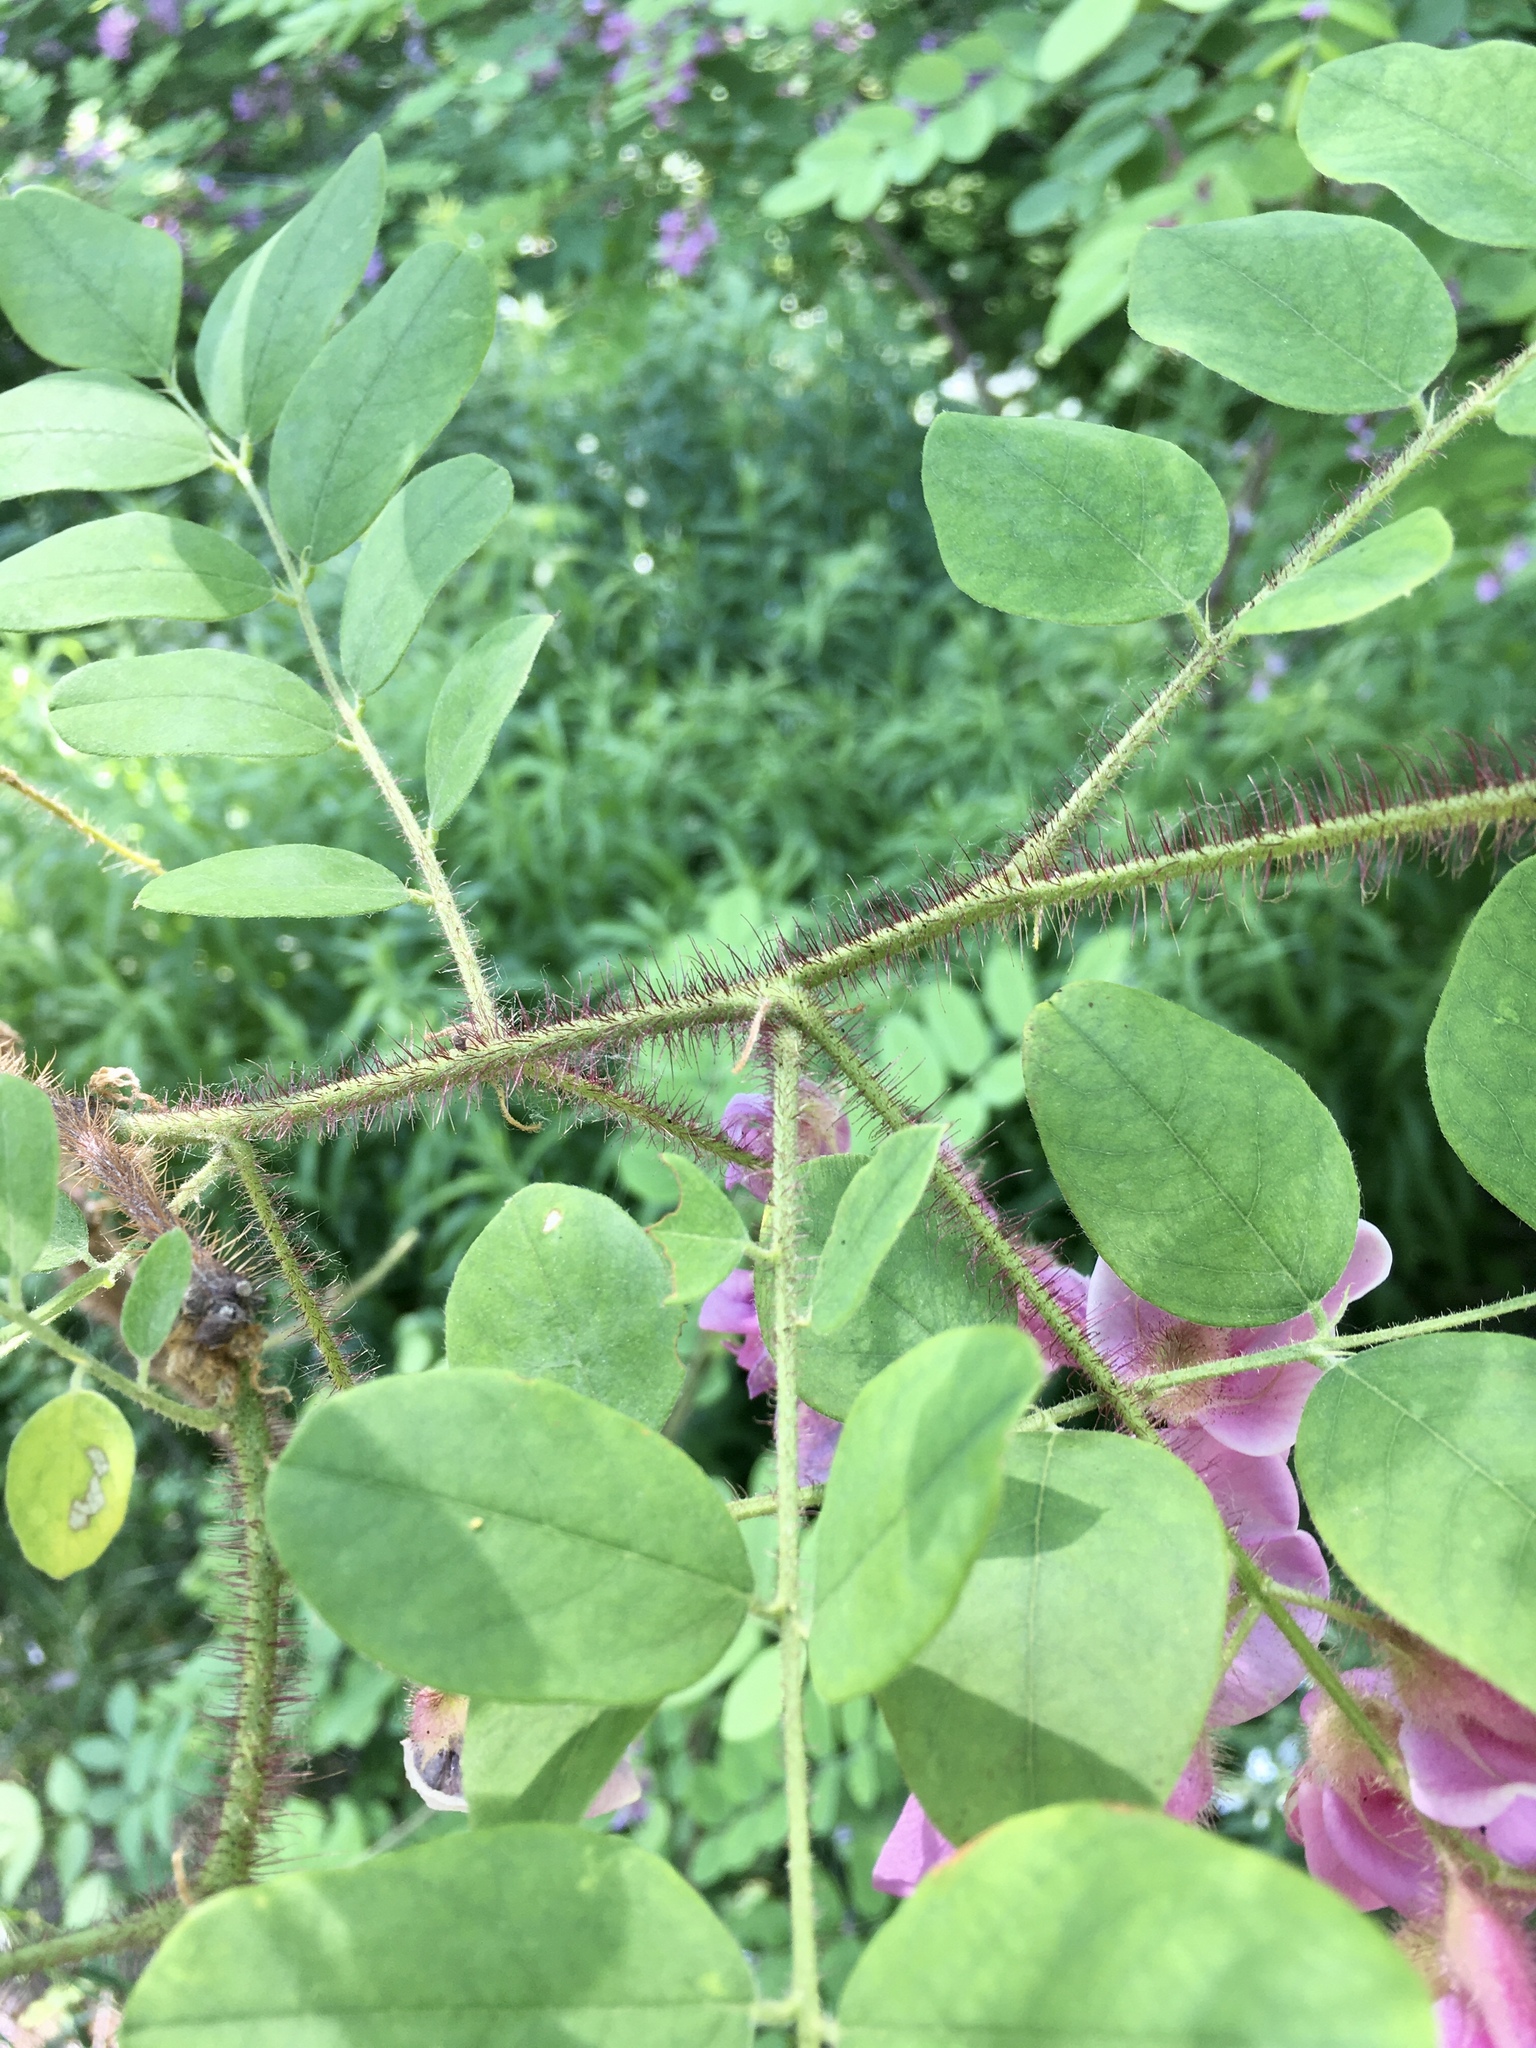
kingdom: Plantae
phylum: Tracheophyta
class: Magnoliopsida
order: Fabales
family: Fabaceae
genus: Robinia
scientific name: Robinia hispida
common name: Bristly locust
